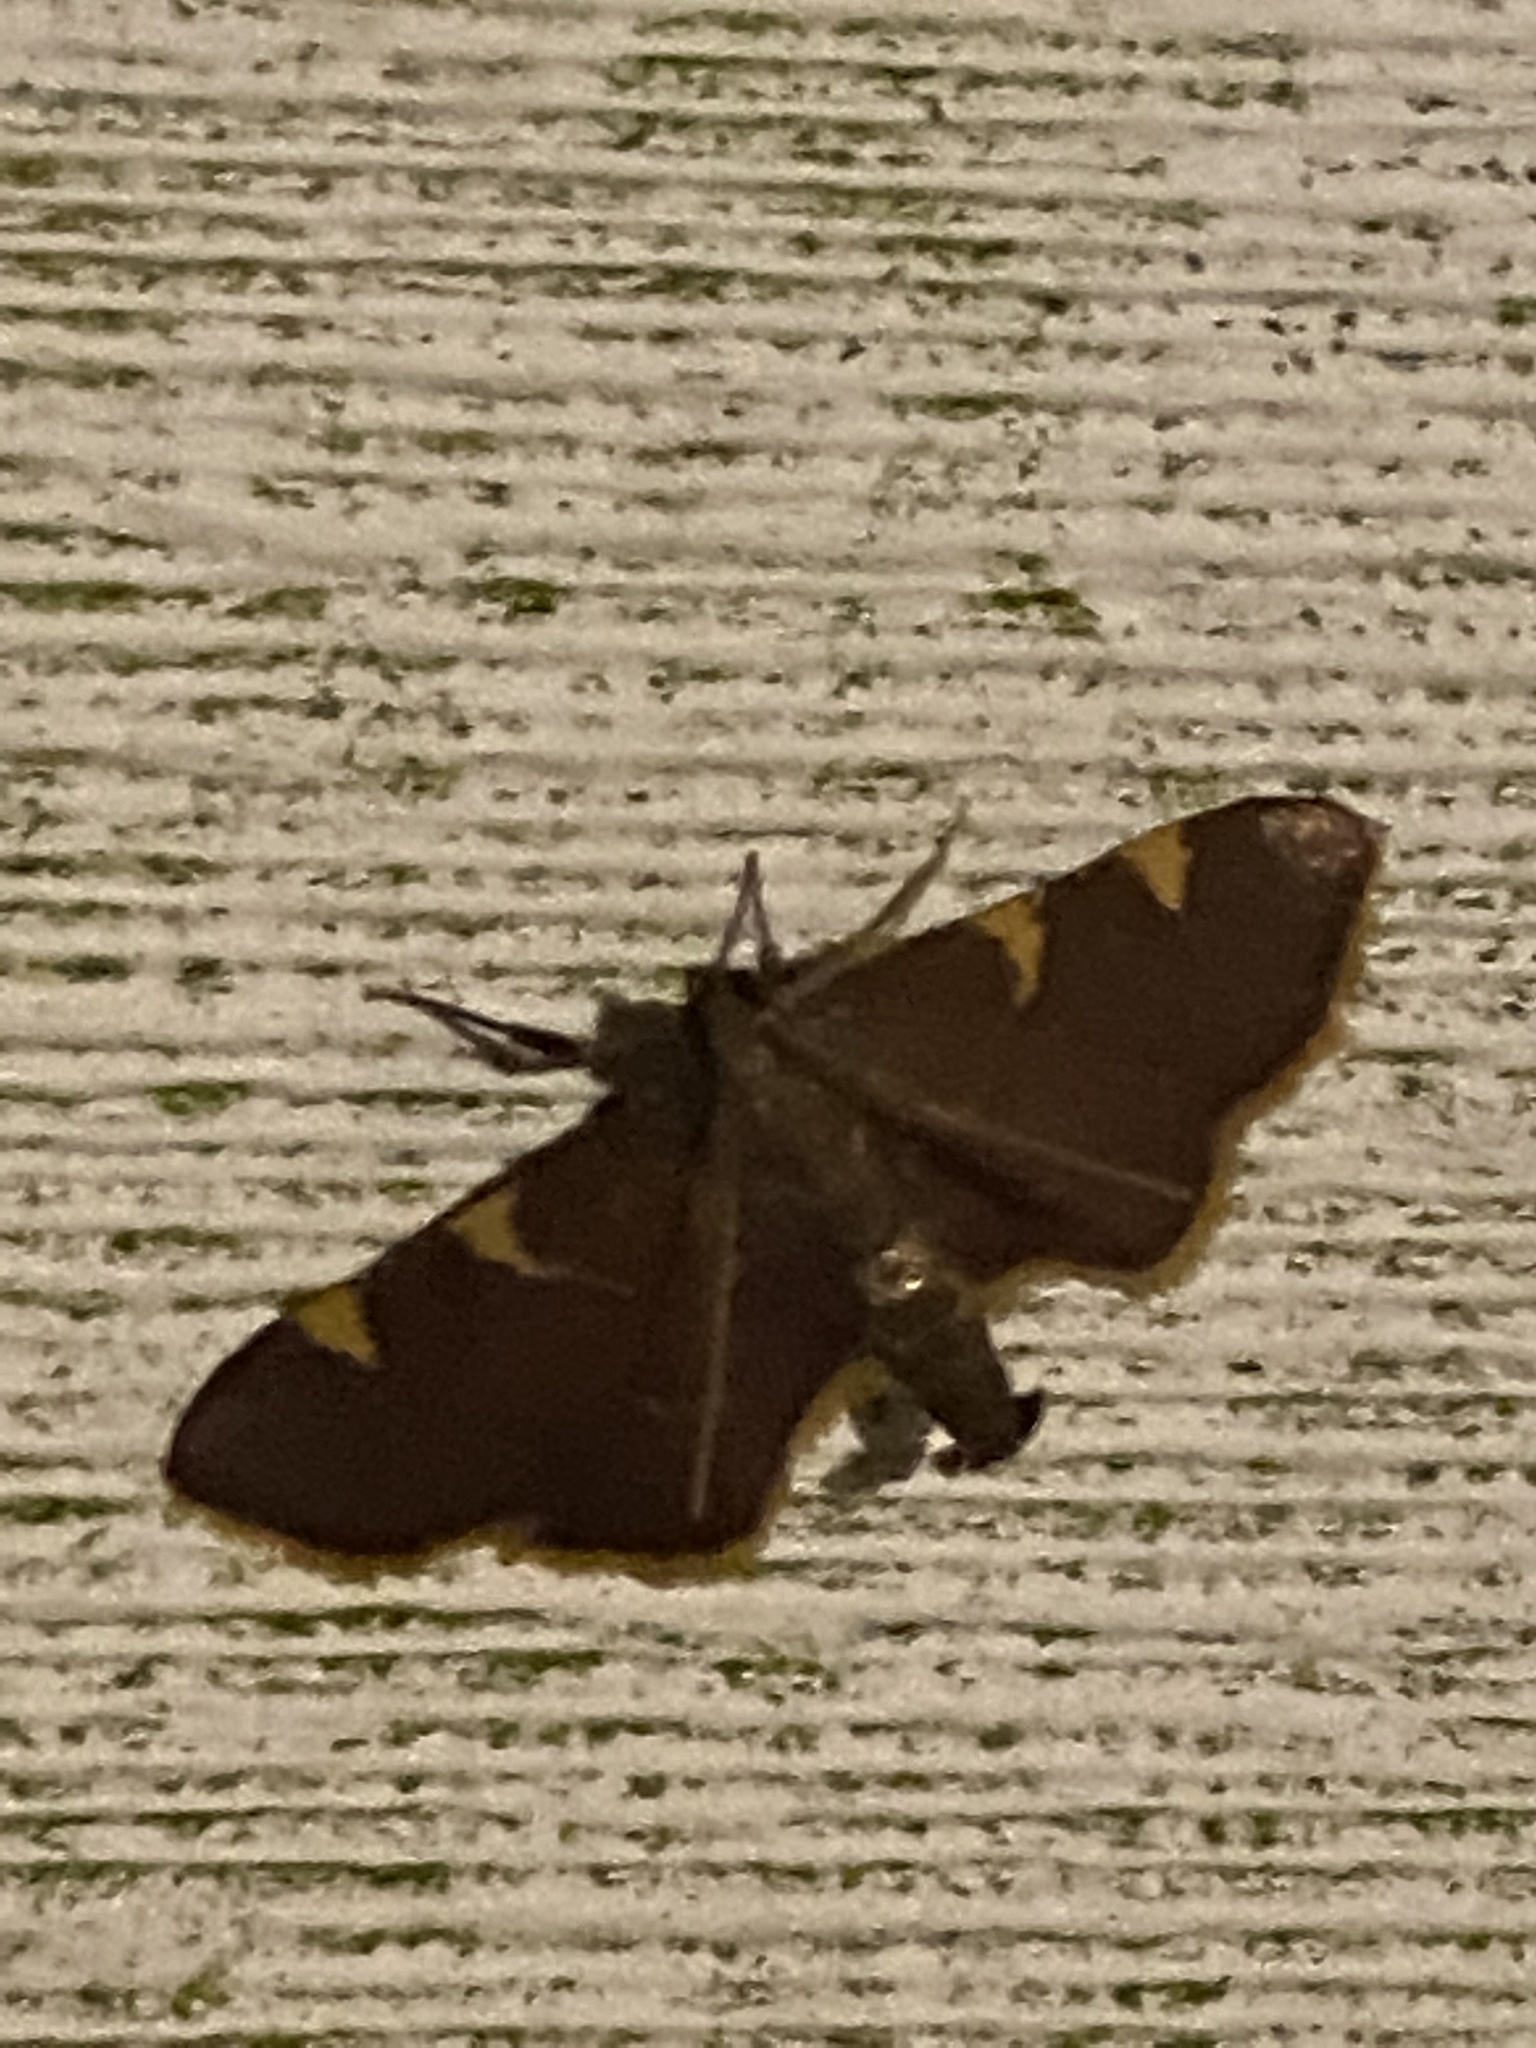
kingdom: Animalia
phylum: Arthropoda
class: Insecta
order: Lepidoptera
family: Pyralidae
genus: Hypsopygia
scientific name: Hypsopygia olinalis
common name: Yellow-fringed dolichomia moth
